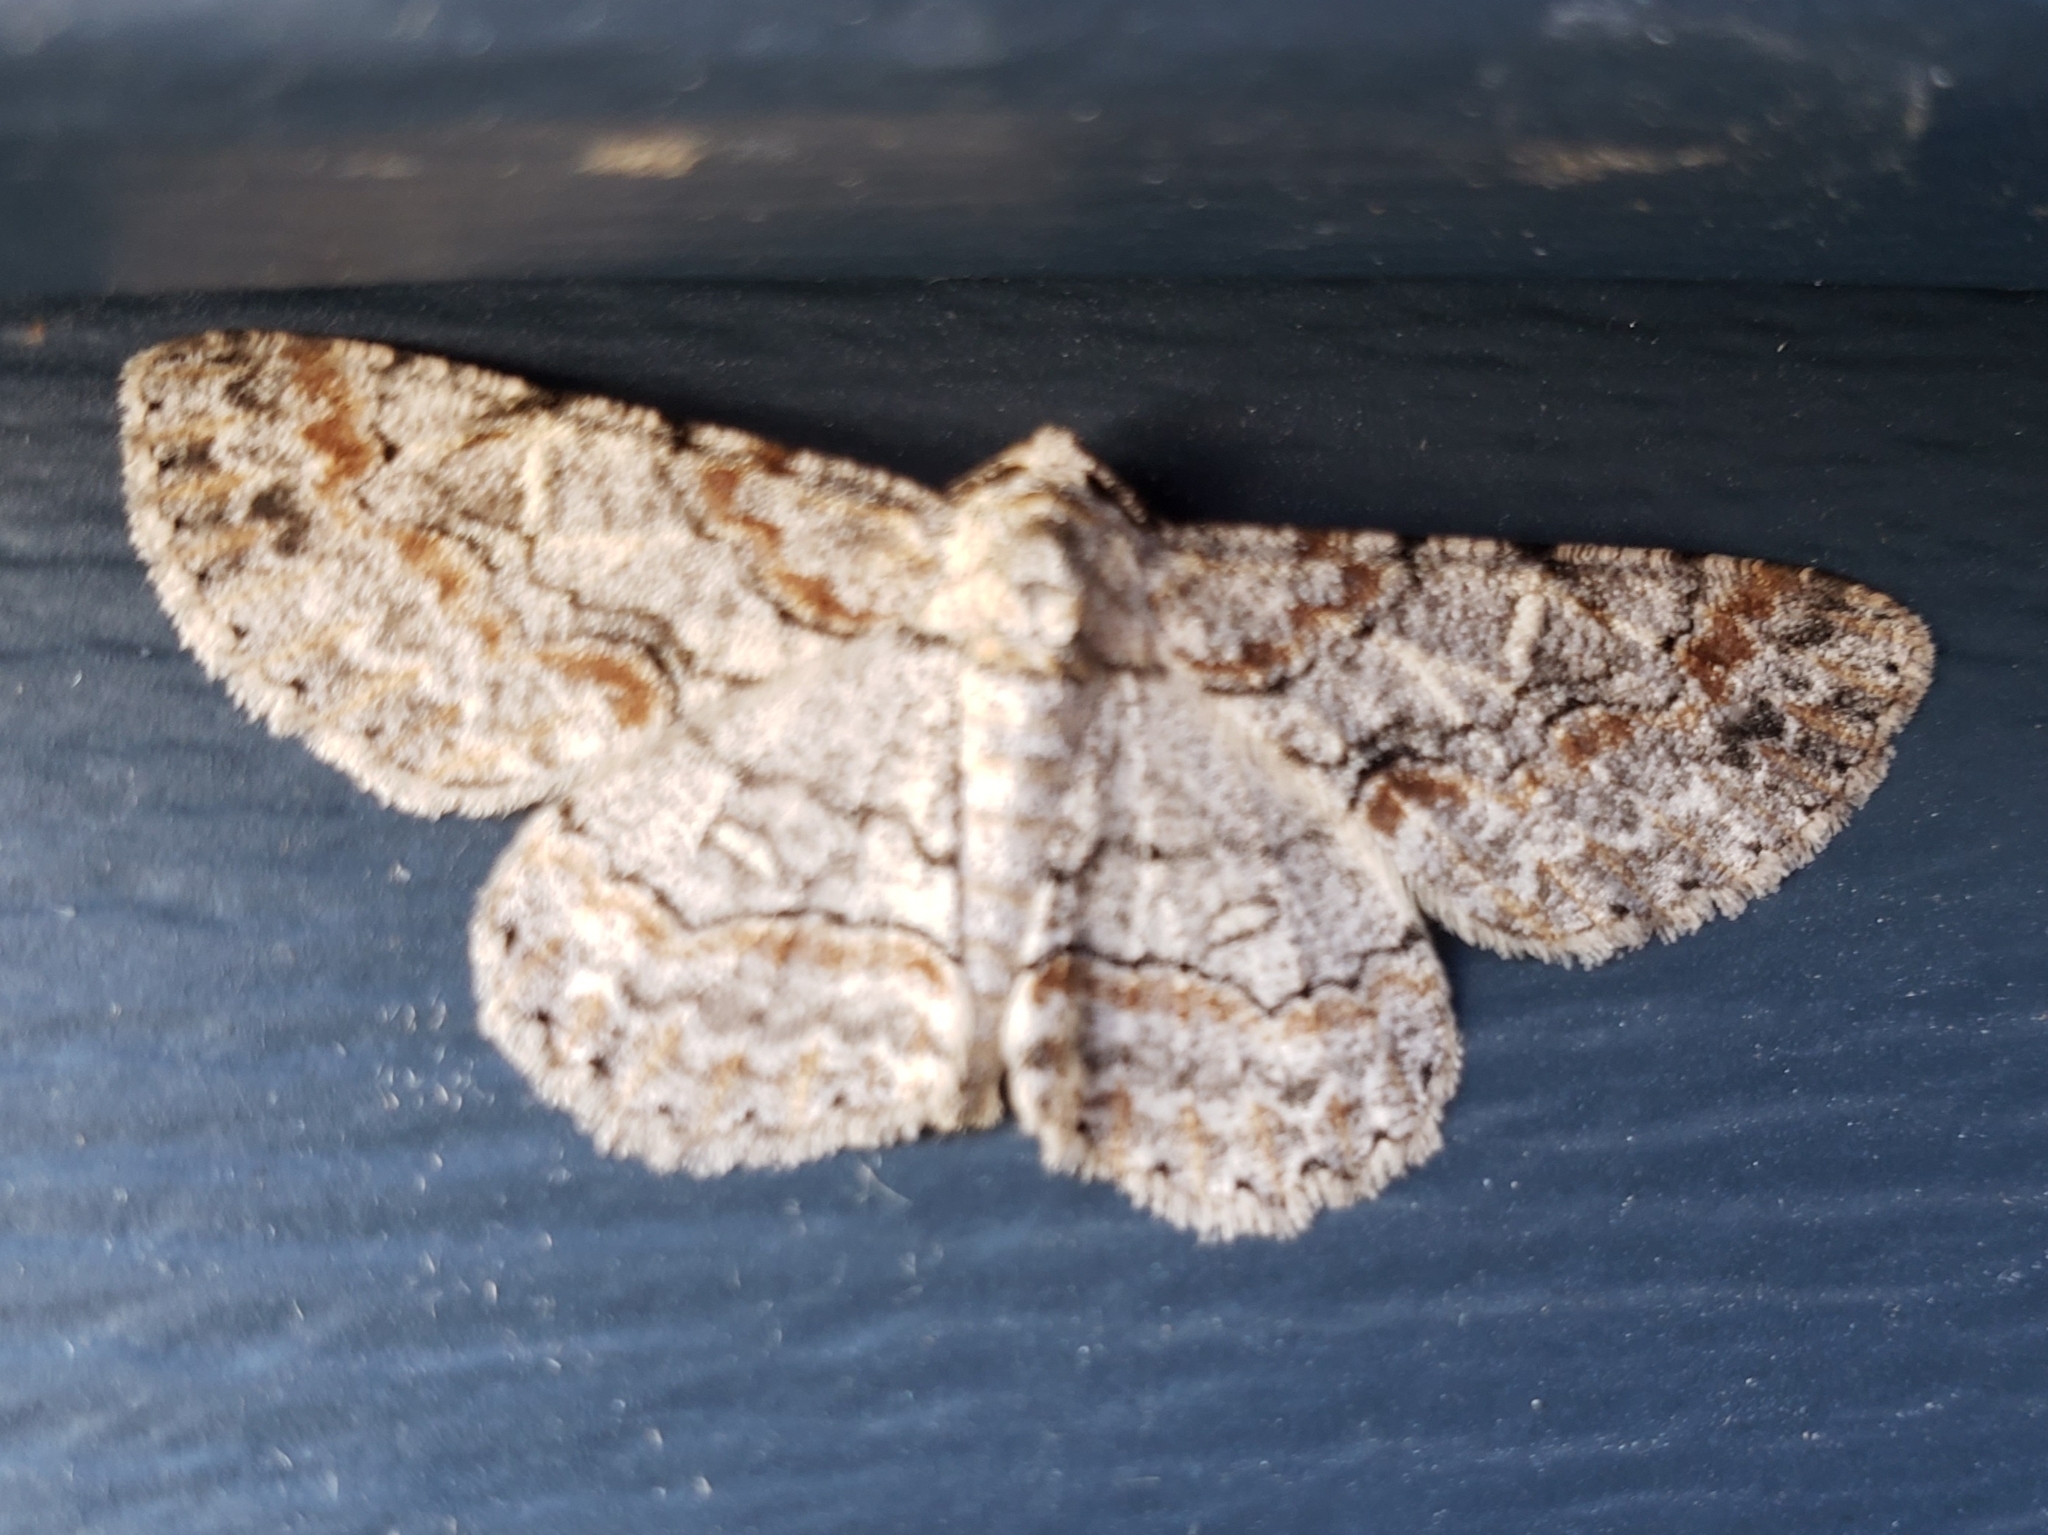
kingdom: Animalia
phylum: Arthropoda
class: Insecta
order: Lepidoptera
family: Geometridae
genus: Iridopsis
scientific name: Iridopsis defectaria
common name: Brown-shaded gray
